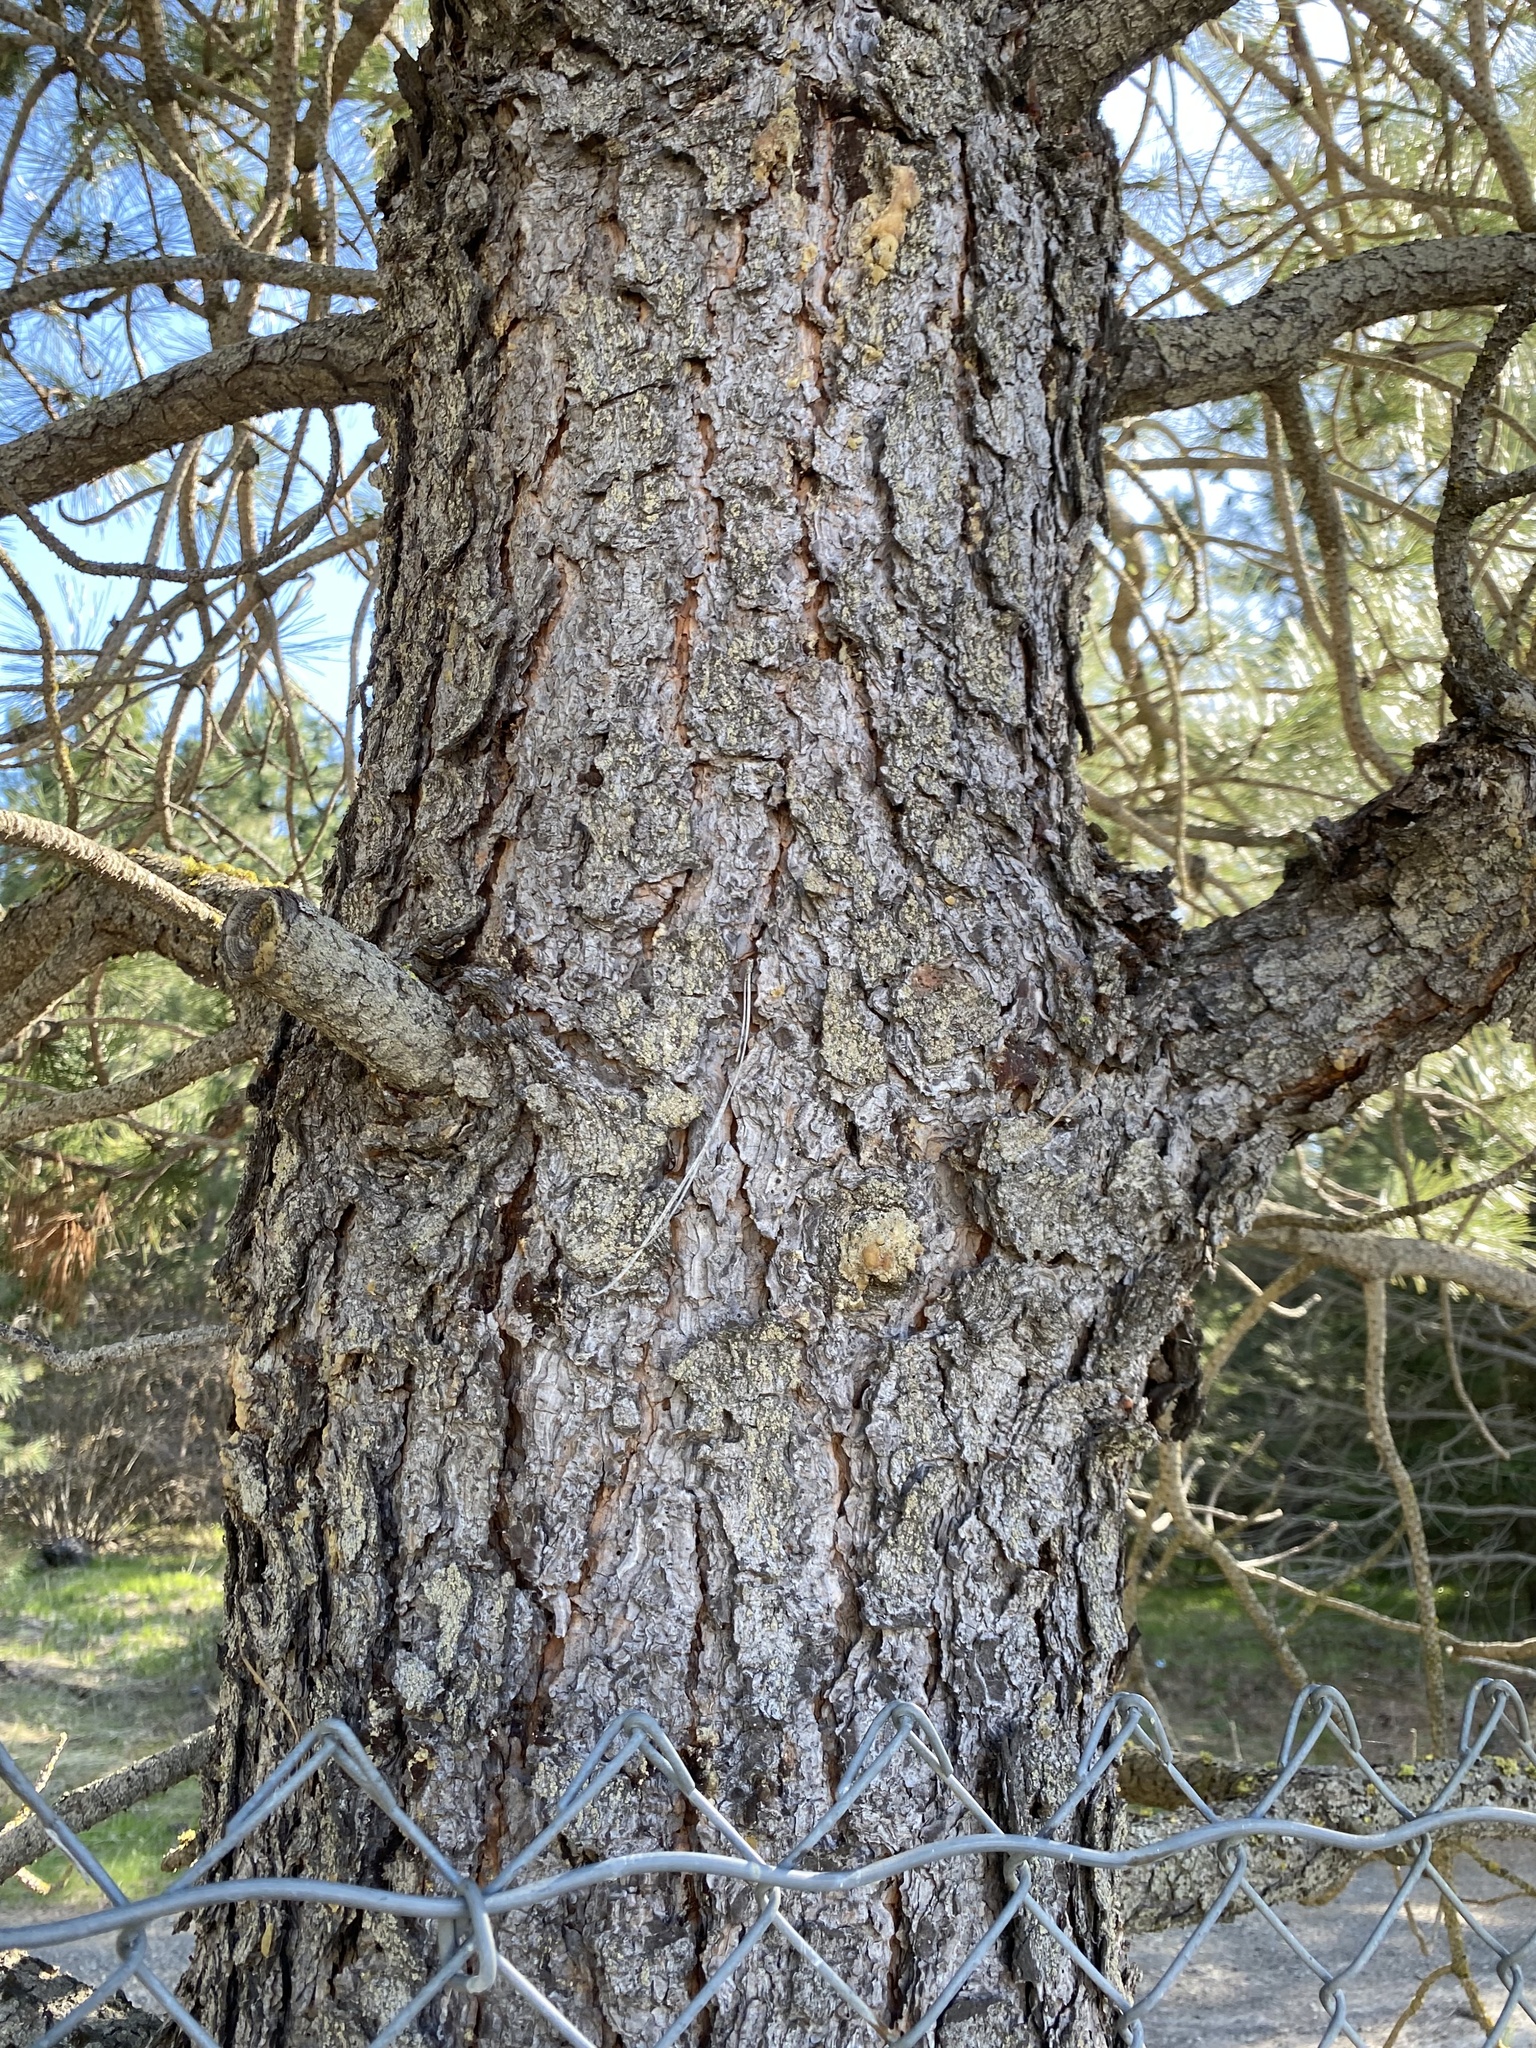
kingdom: Plantae
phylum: Tracheophyta
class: Pinopsida
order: Pinales
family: Pinaceae
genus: Pinus
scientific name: Pinus ponderosa
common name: Western yellow-pine
